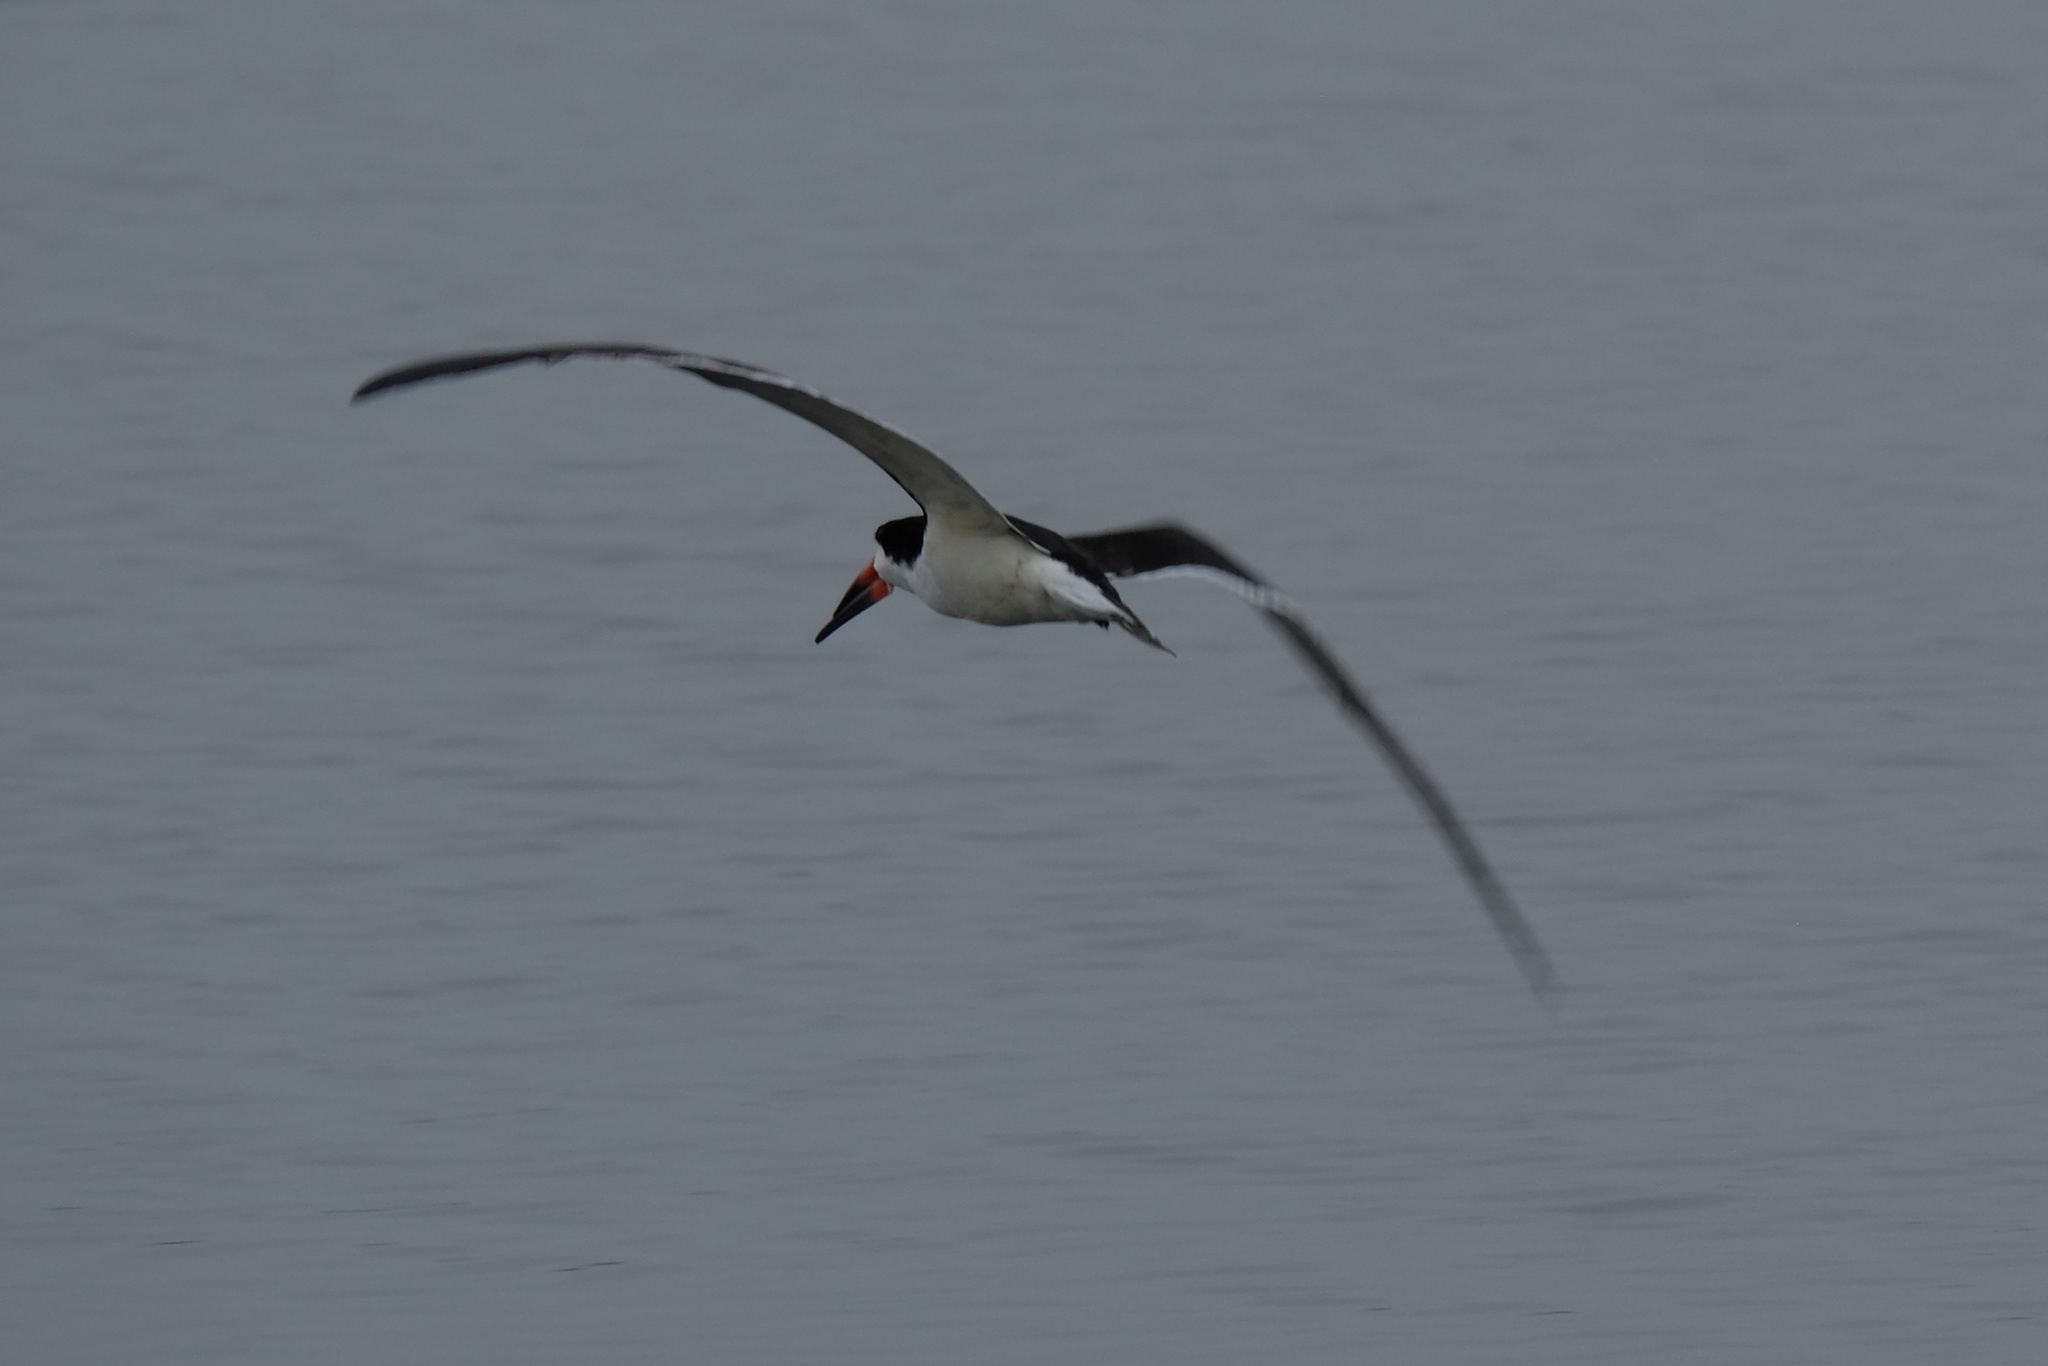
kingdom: Animalia
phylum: Chordata
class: Aves
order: Charadriiformes
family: Laridae
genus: Rynchops
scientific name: Rynchops niger
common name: Black skimmer
